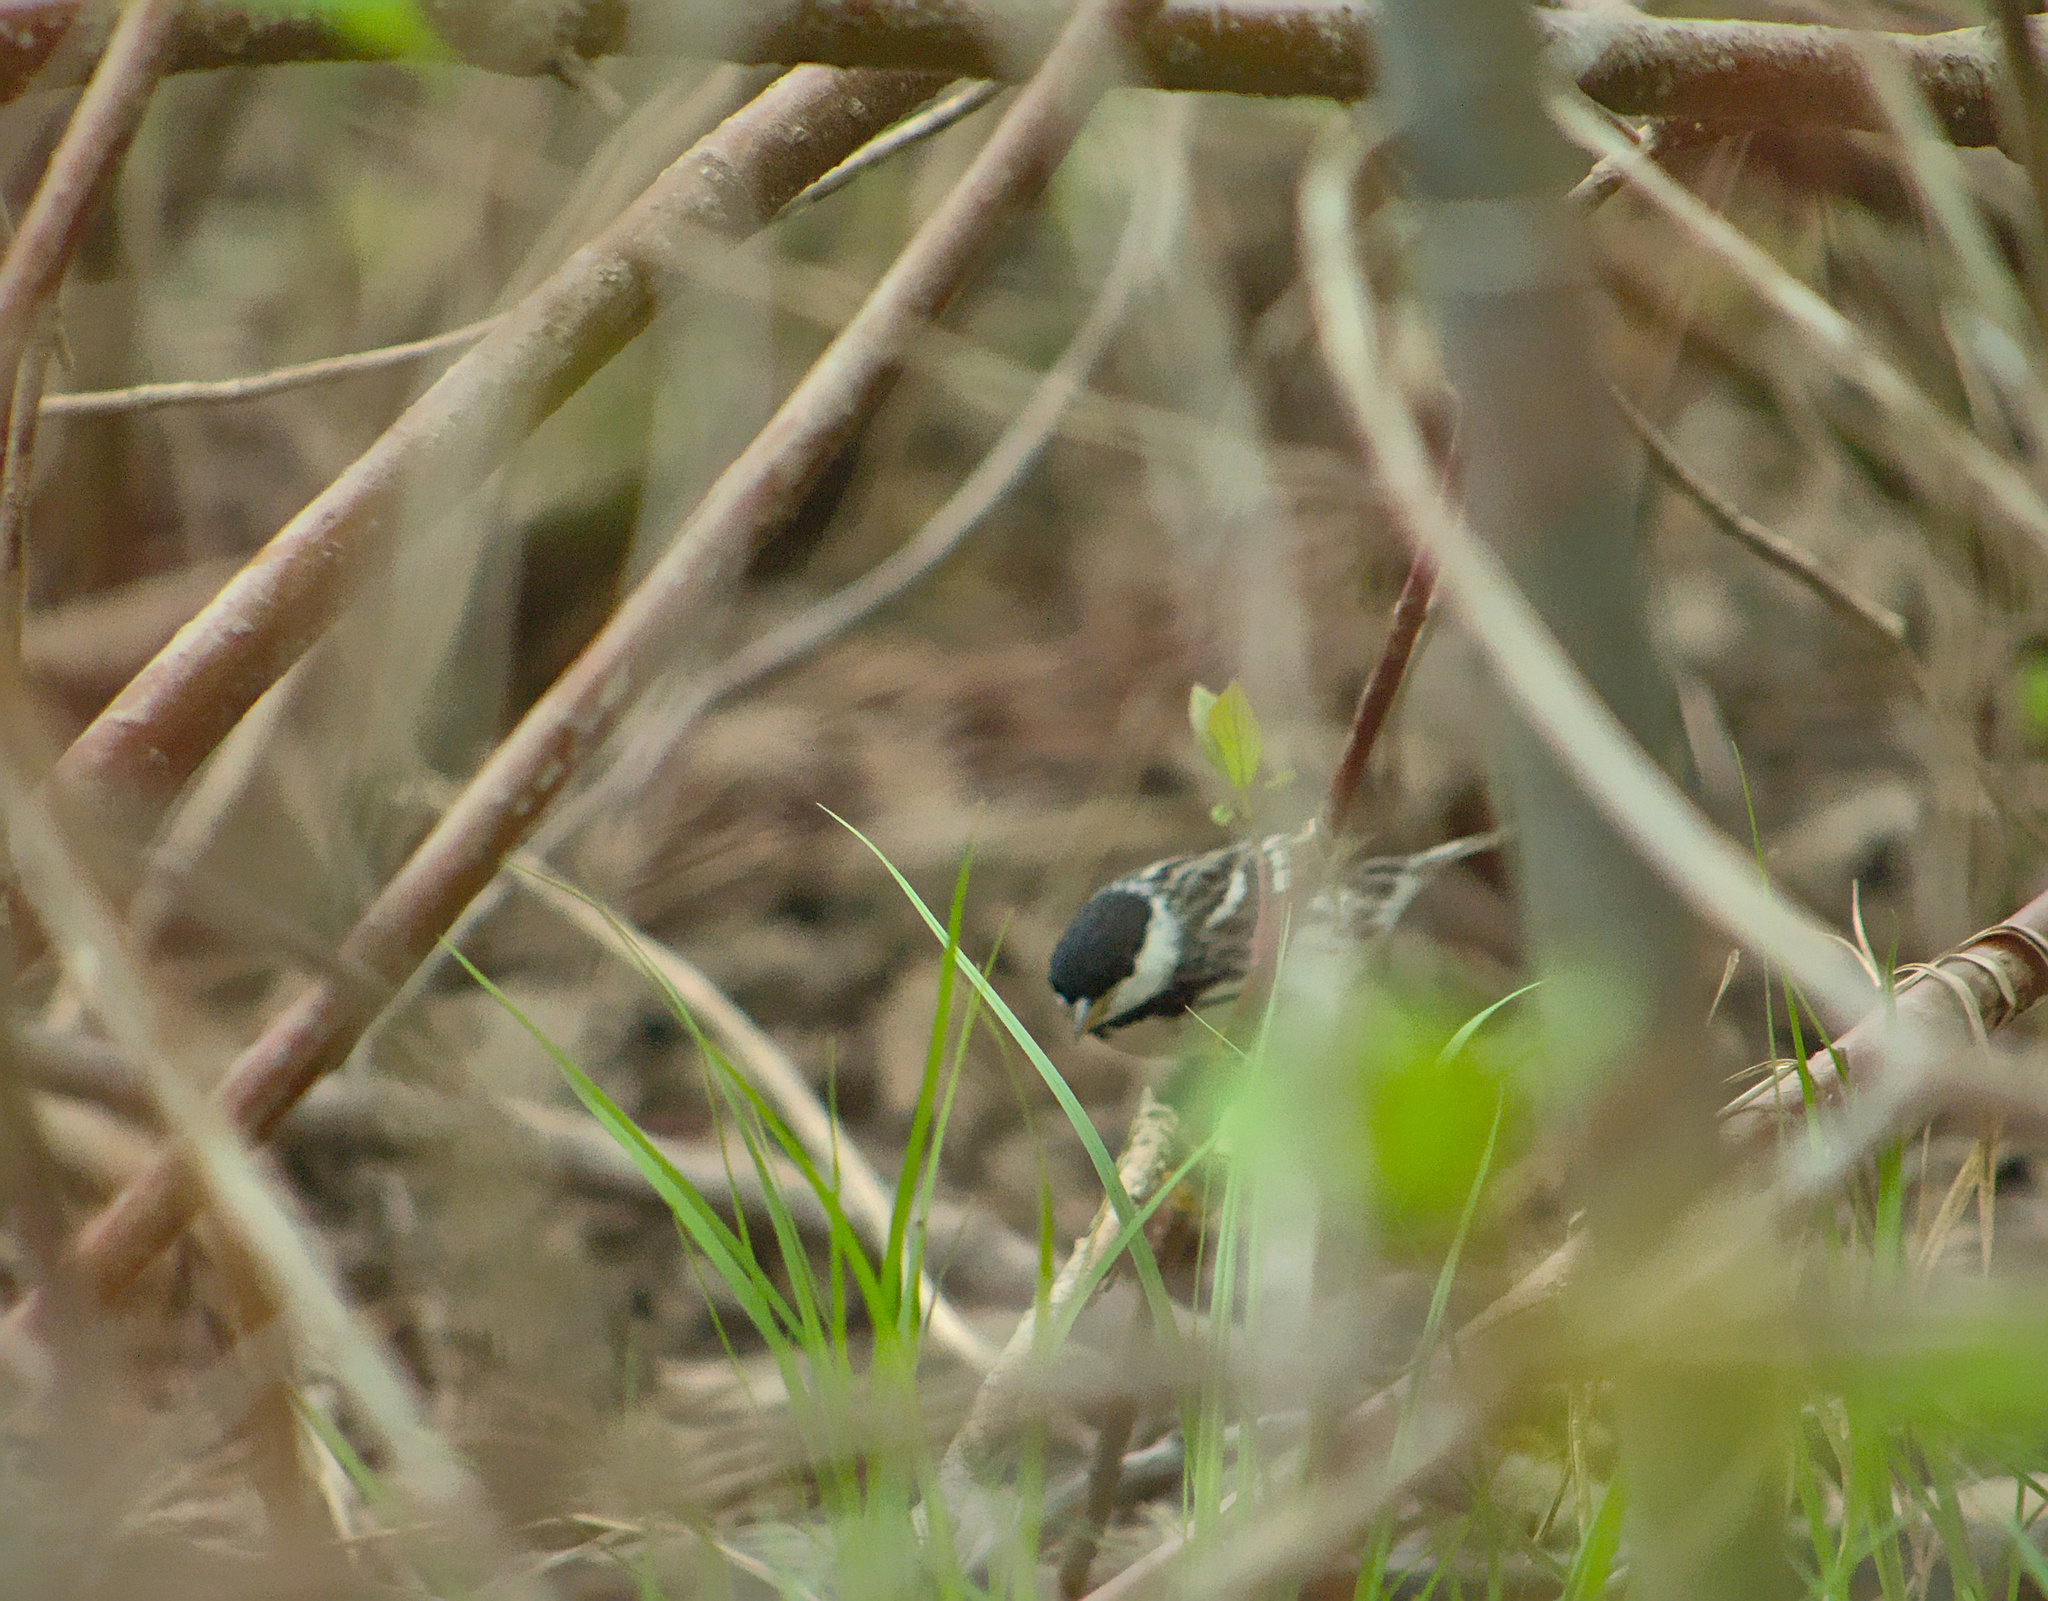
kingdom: Animalia
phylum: Chordata
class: Aves
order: Passeriformes
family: Parulidae
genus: Setophaga
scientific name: Setophaga striata
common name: Blackpoll warbler
